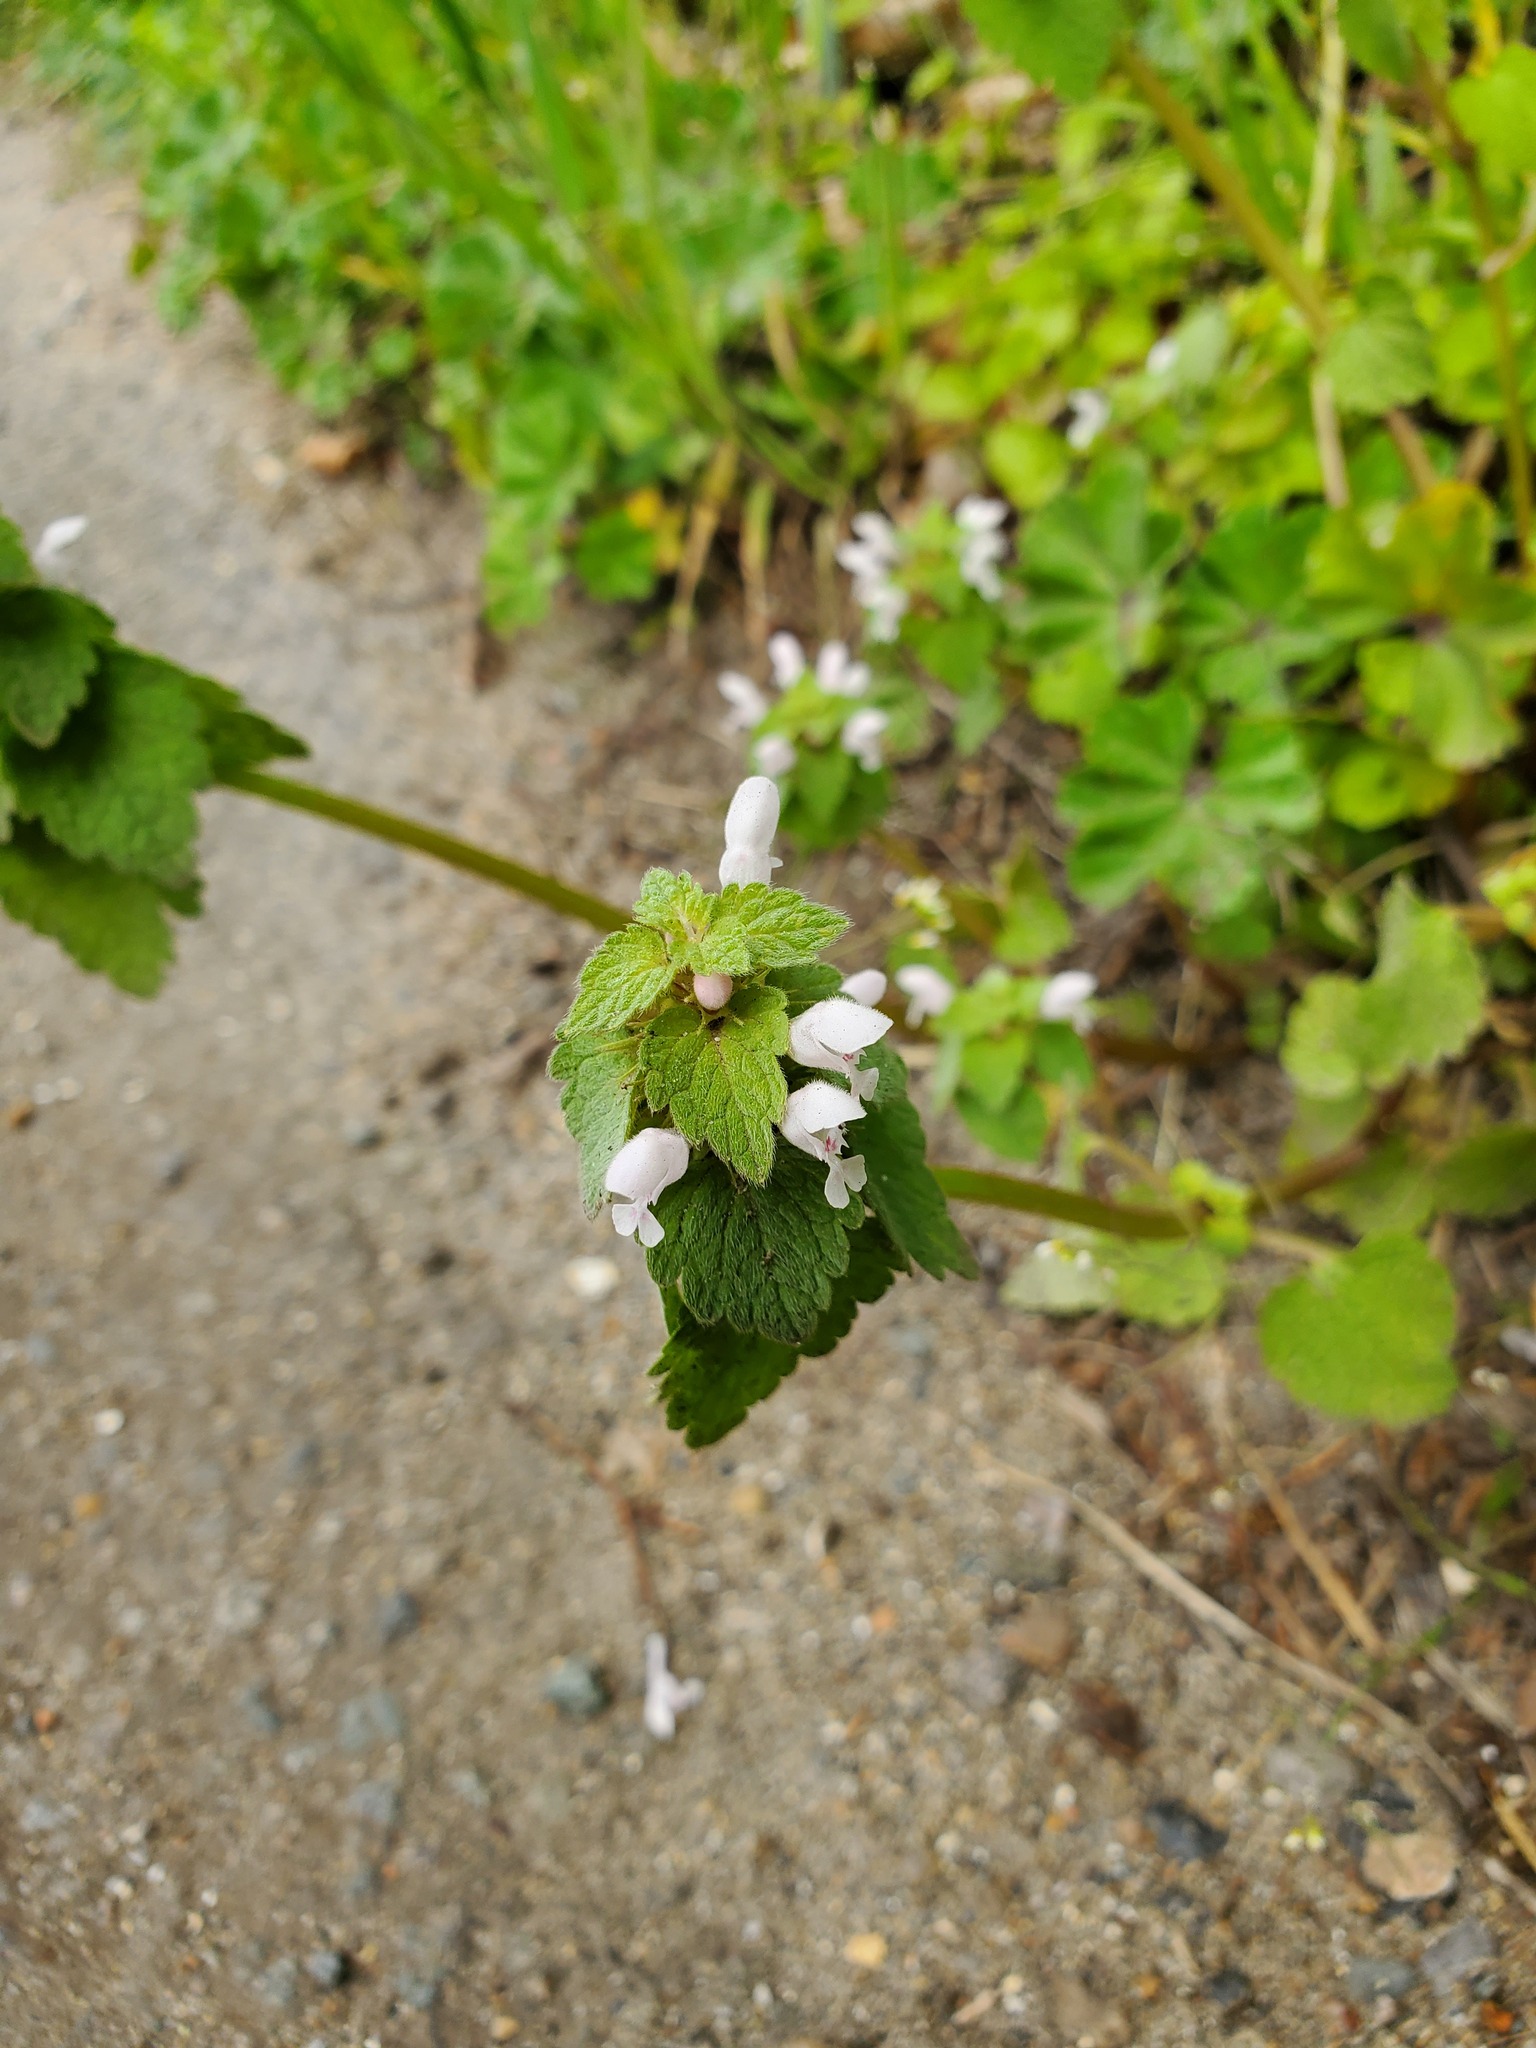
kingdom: Plantae
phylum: Tracheophyta
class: Magnoliopsida
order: Lamiales
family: Lamiaceae
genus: Lamium
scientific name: Lamium purpureum
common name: Red dead-nettle
